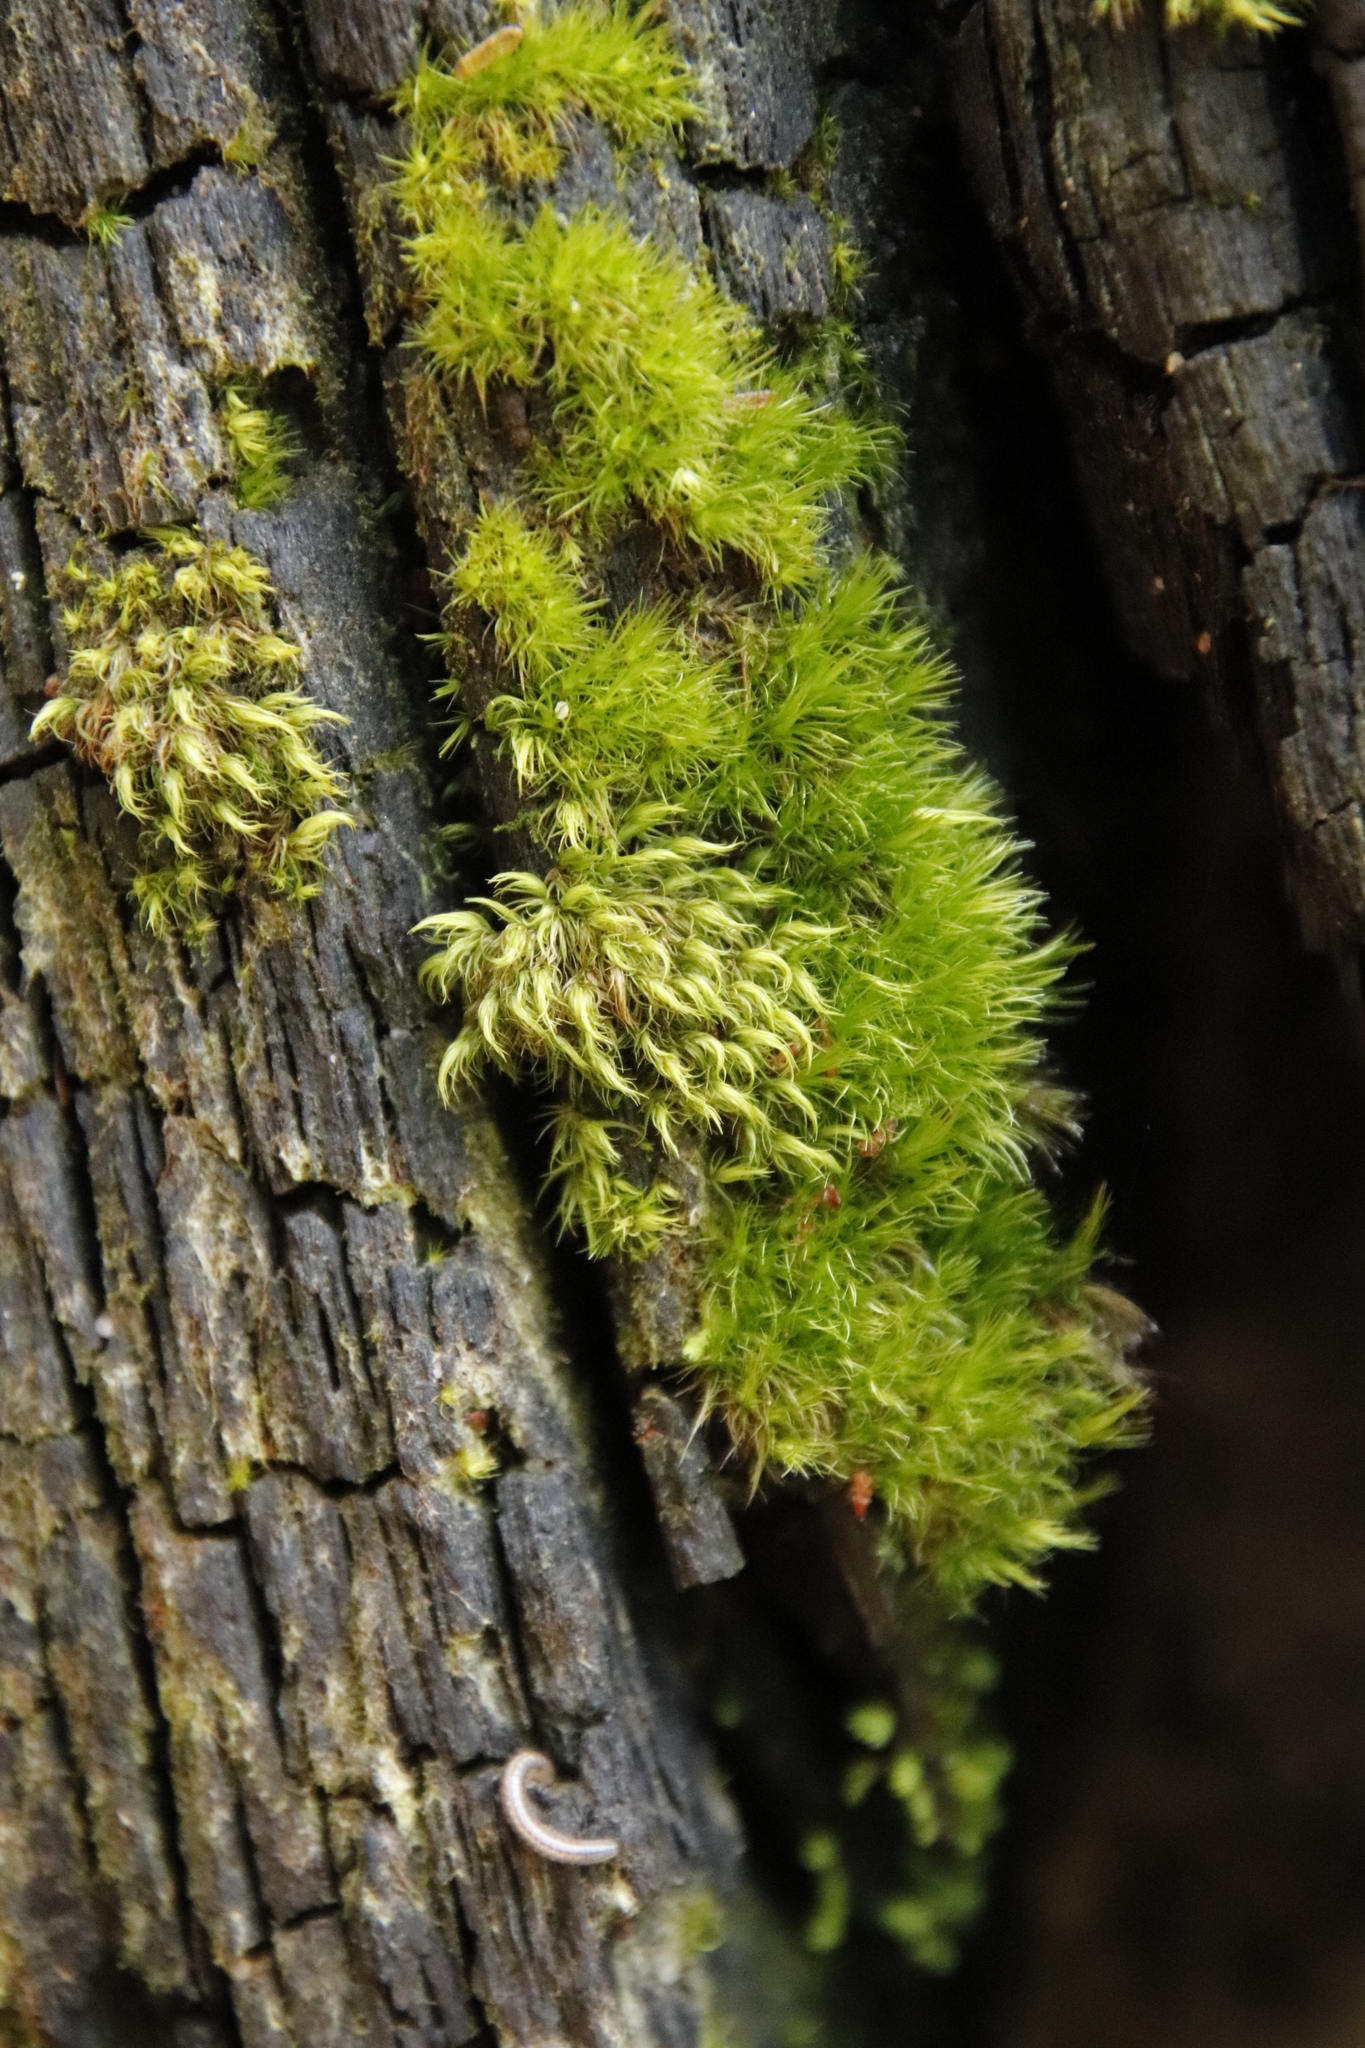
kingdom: Plantae
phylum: Bryophyta
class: Bryopsida
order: Dicranales
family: Dicranaceae
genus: Leucoloma
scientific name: Leucoloma sprengelianum
